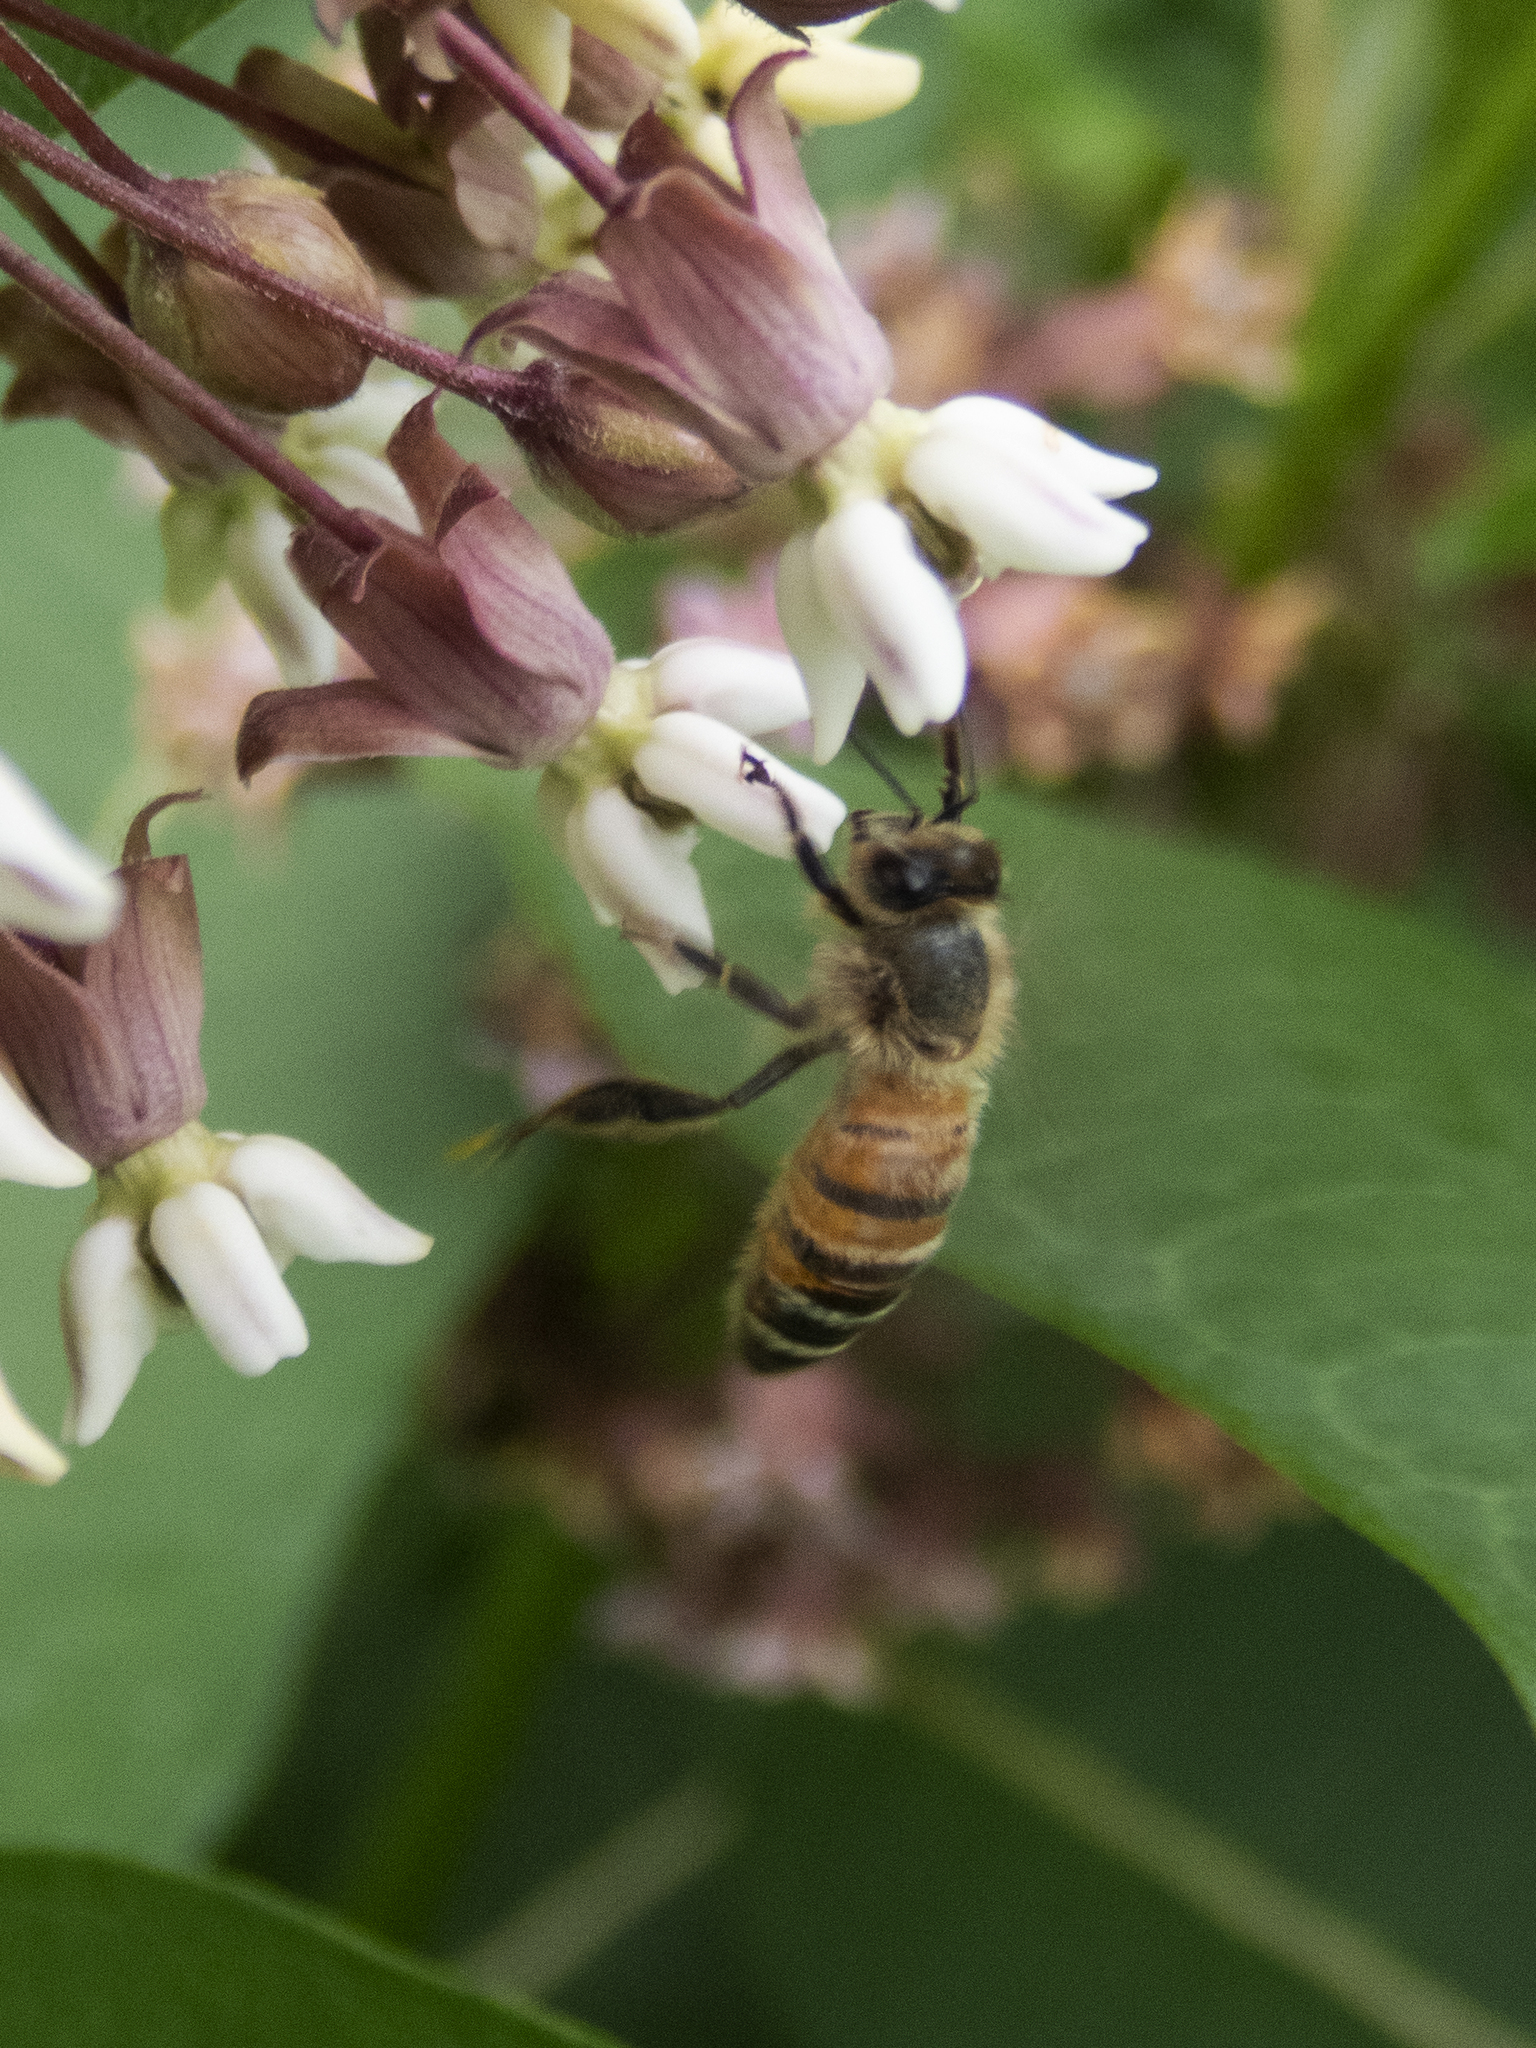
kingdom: Animalia
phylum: Arthropoda
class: Insecta
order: Hymenoptera
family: Apidae
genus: Apis
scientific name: Apis mellifera
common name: Honey bee
